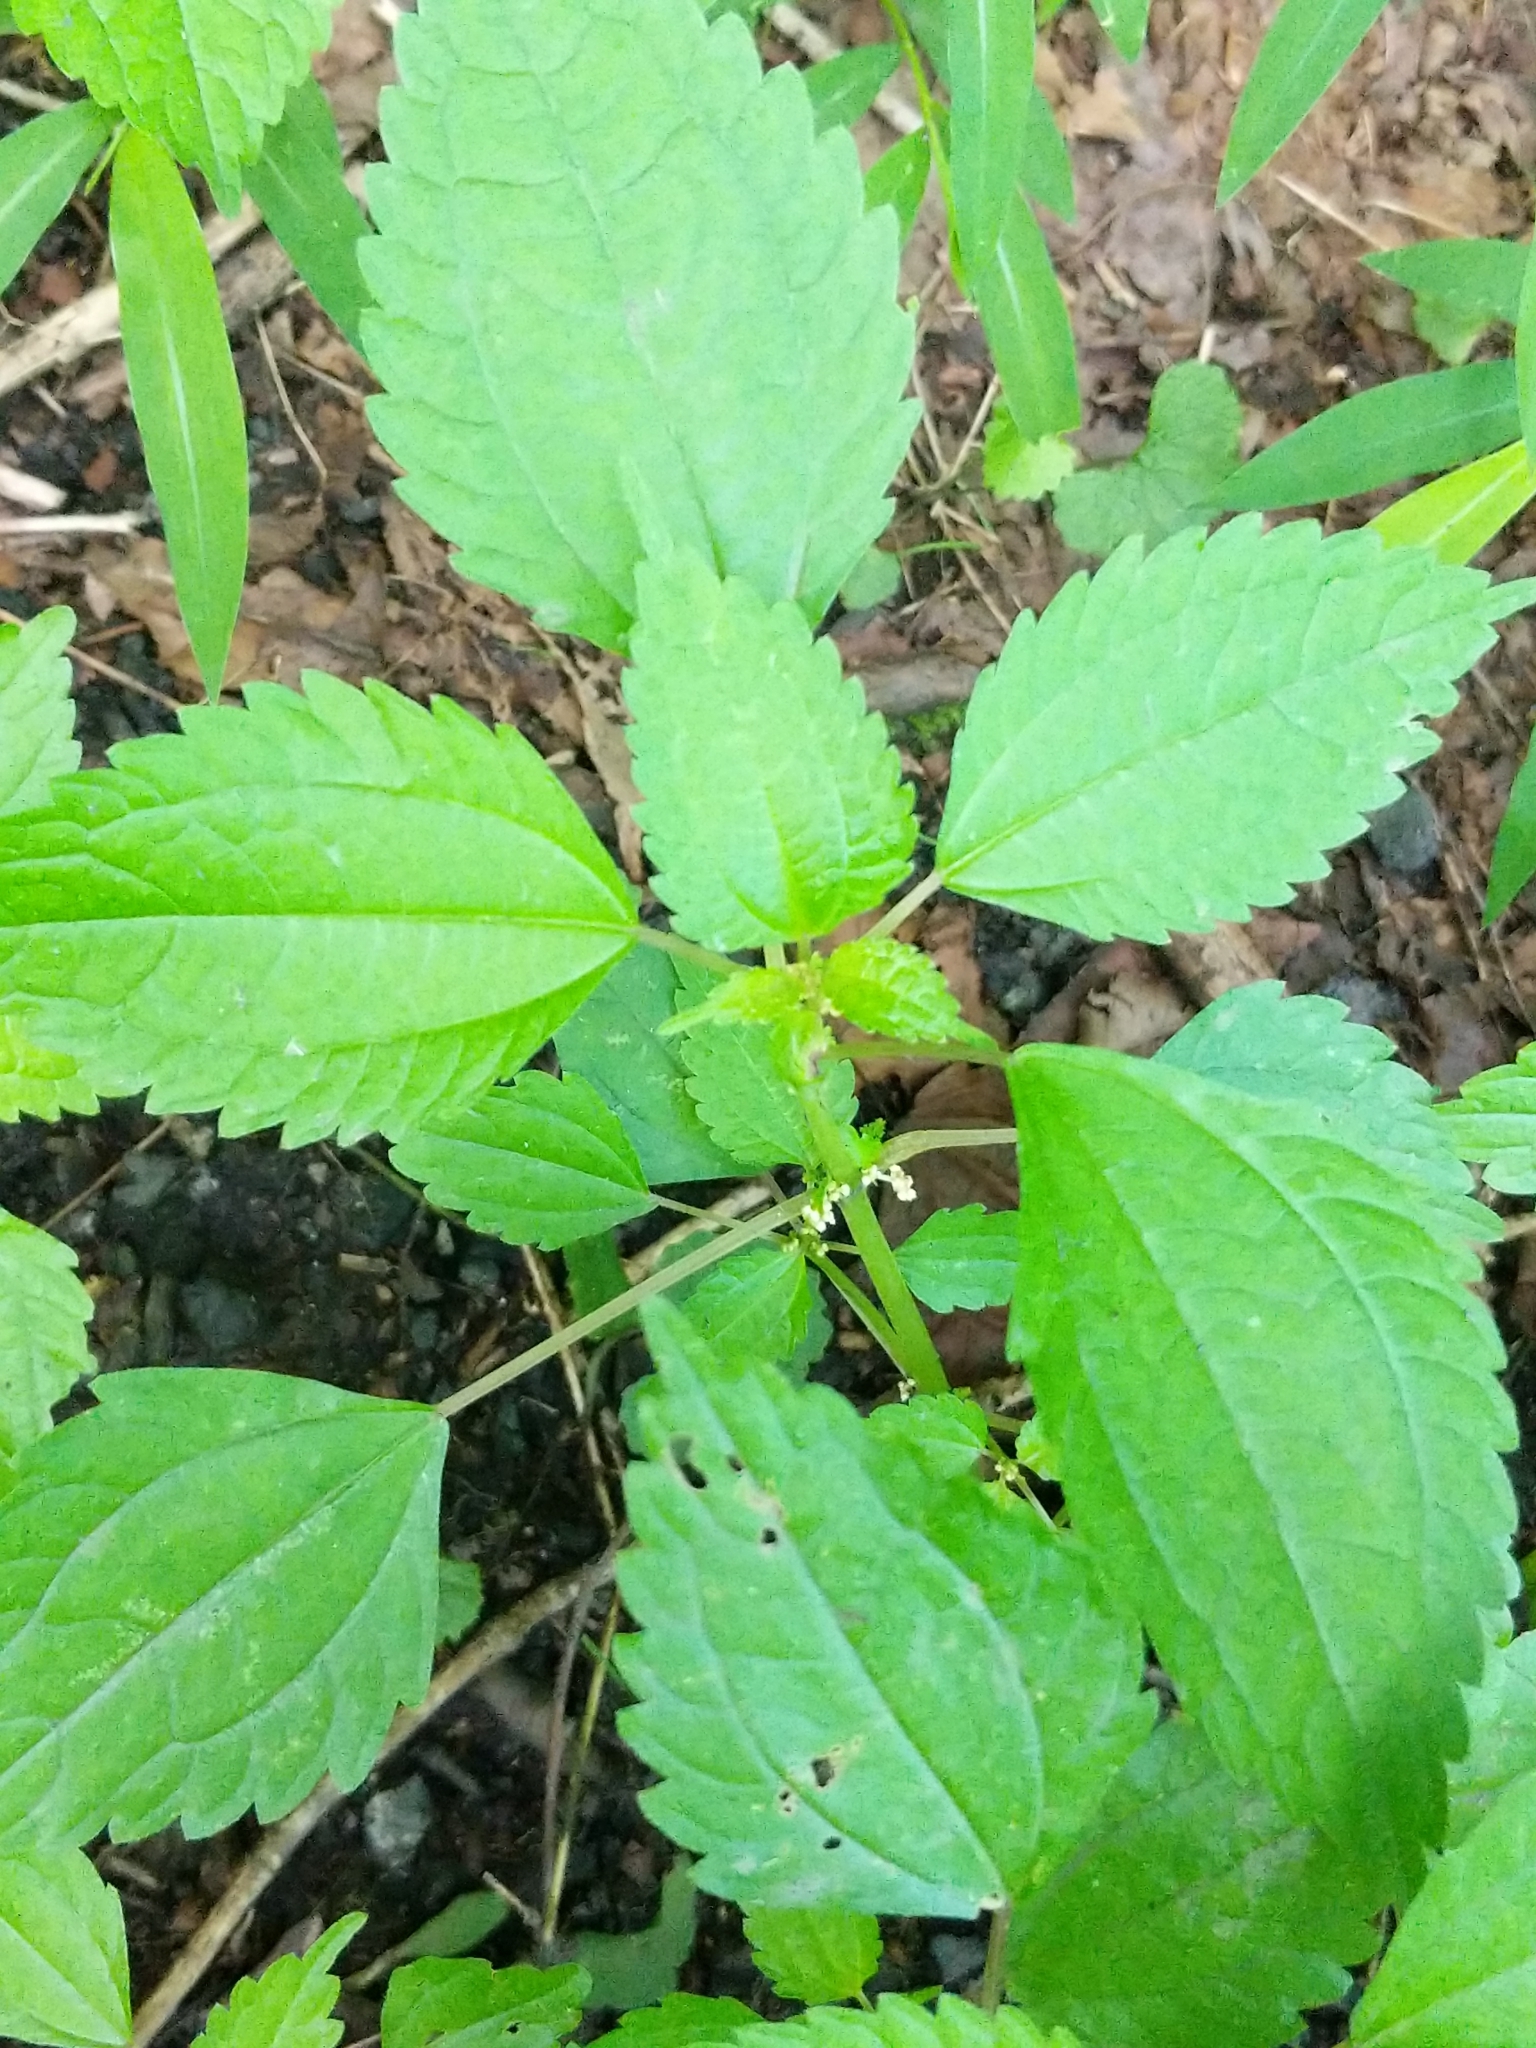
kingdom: Plantae
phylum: Tracheophyta
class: Magnoliopsida
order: Rosales
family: Urticaceae
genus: Pilea
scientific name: Pilea pumila
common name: Clearweed
